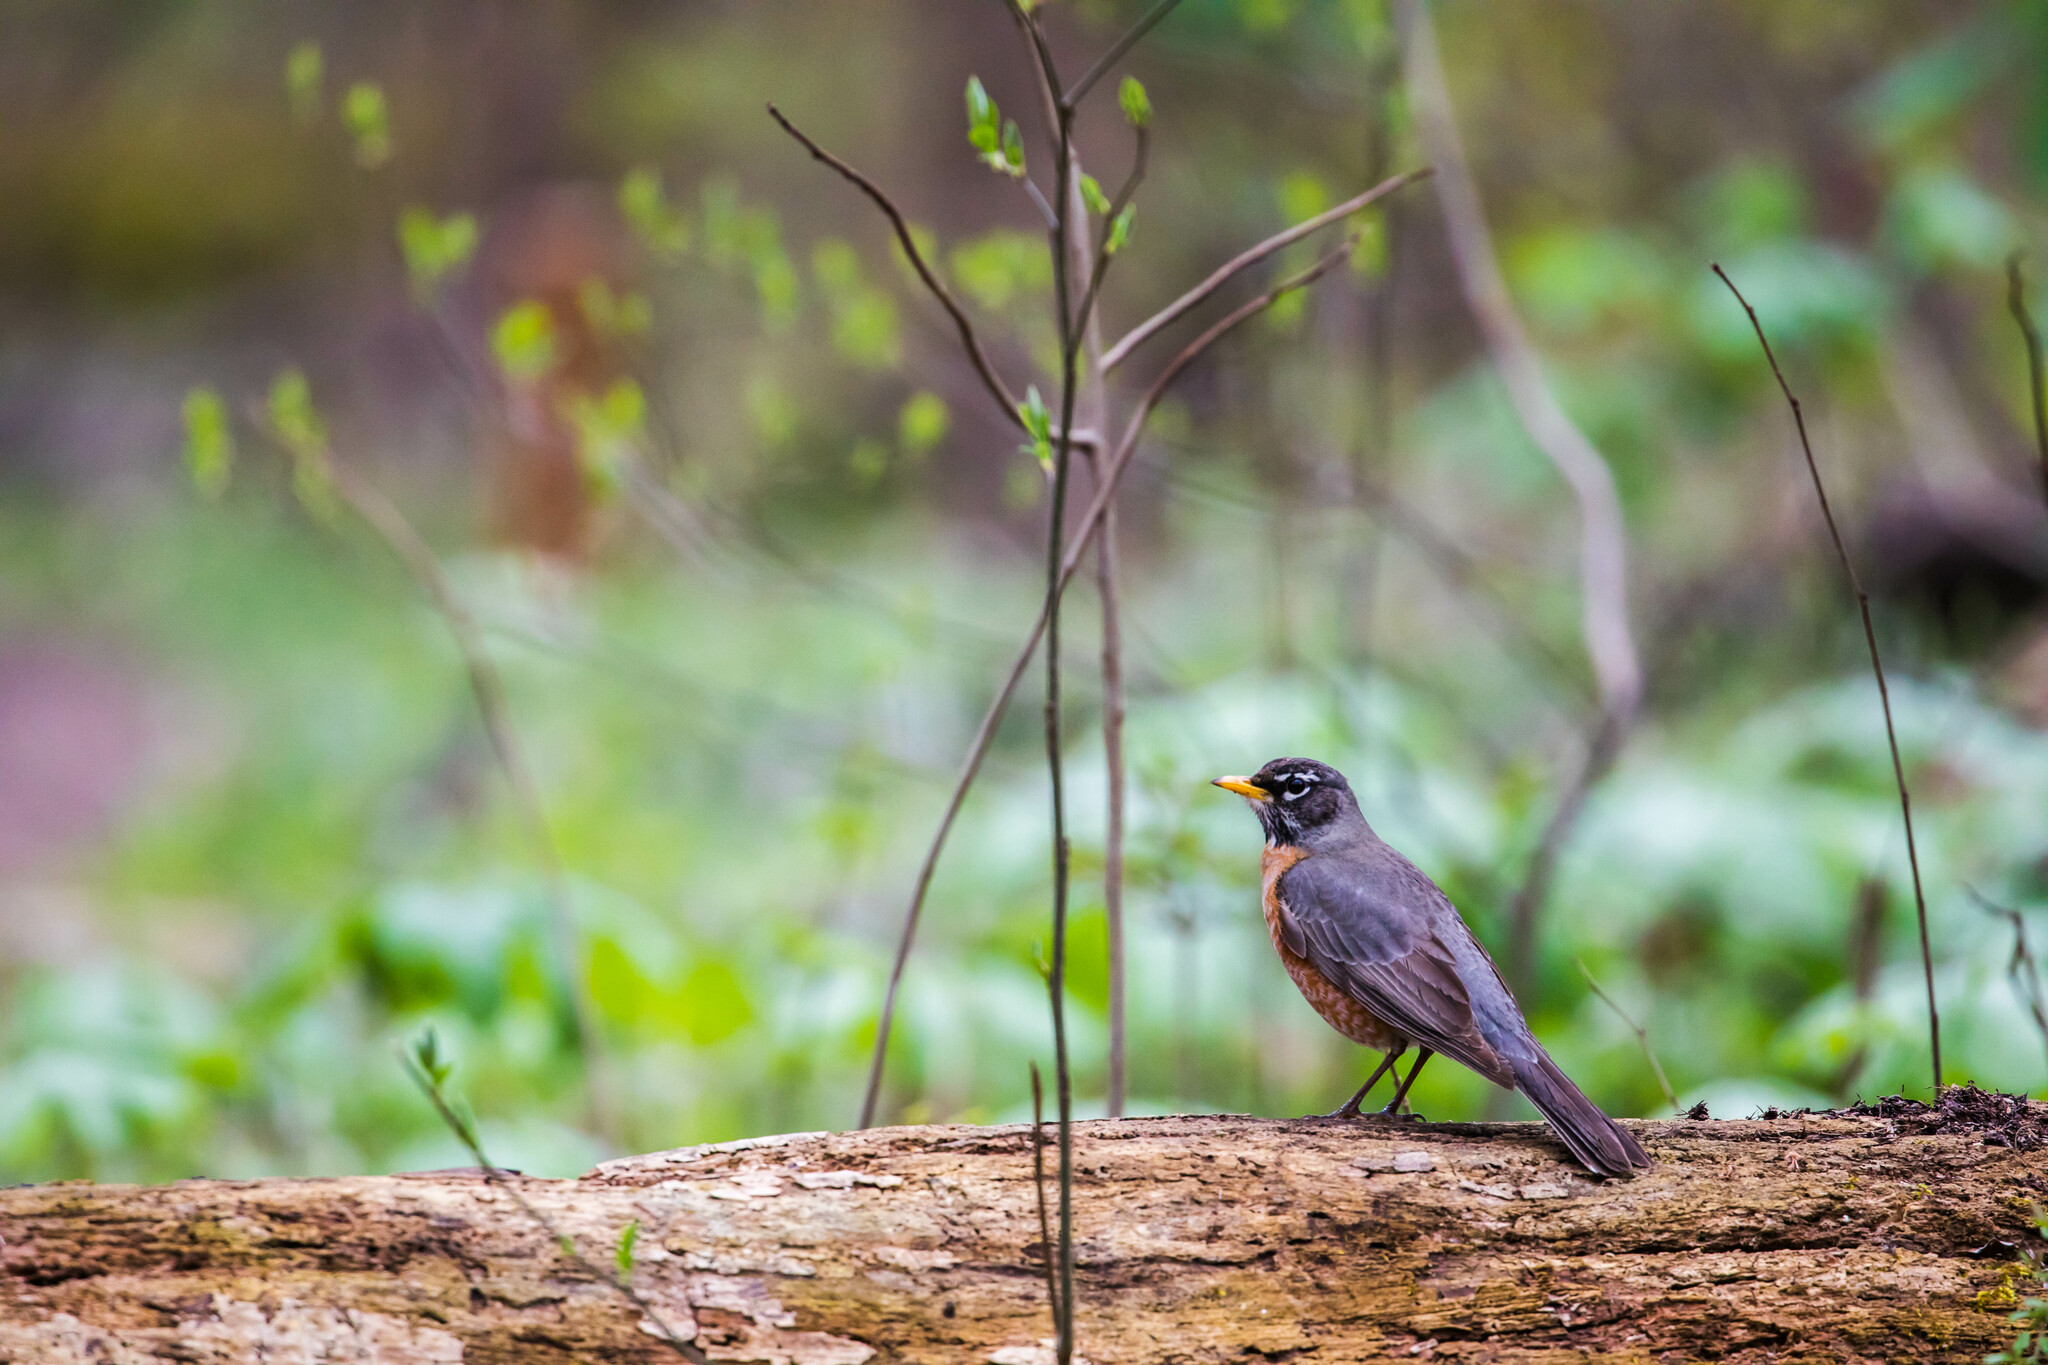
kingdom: Animalia
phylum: Chordata
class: Aves
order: Passeriformes
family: Turdidae
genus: Turdus
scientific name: Turdus migratorius
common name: American robin
